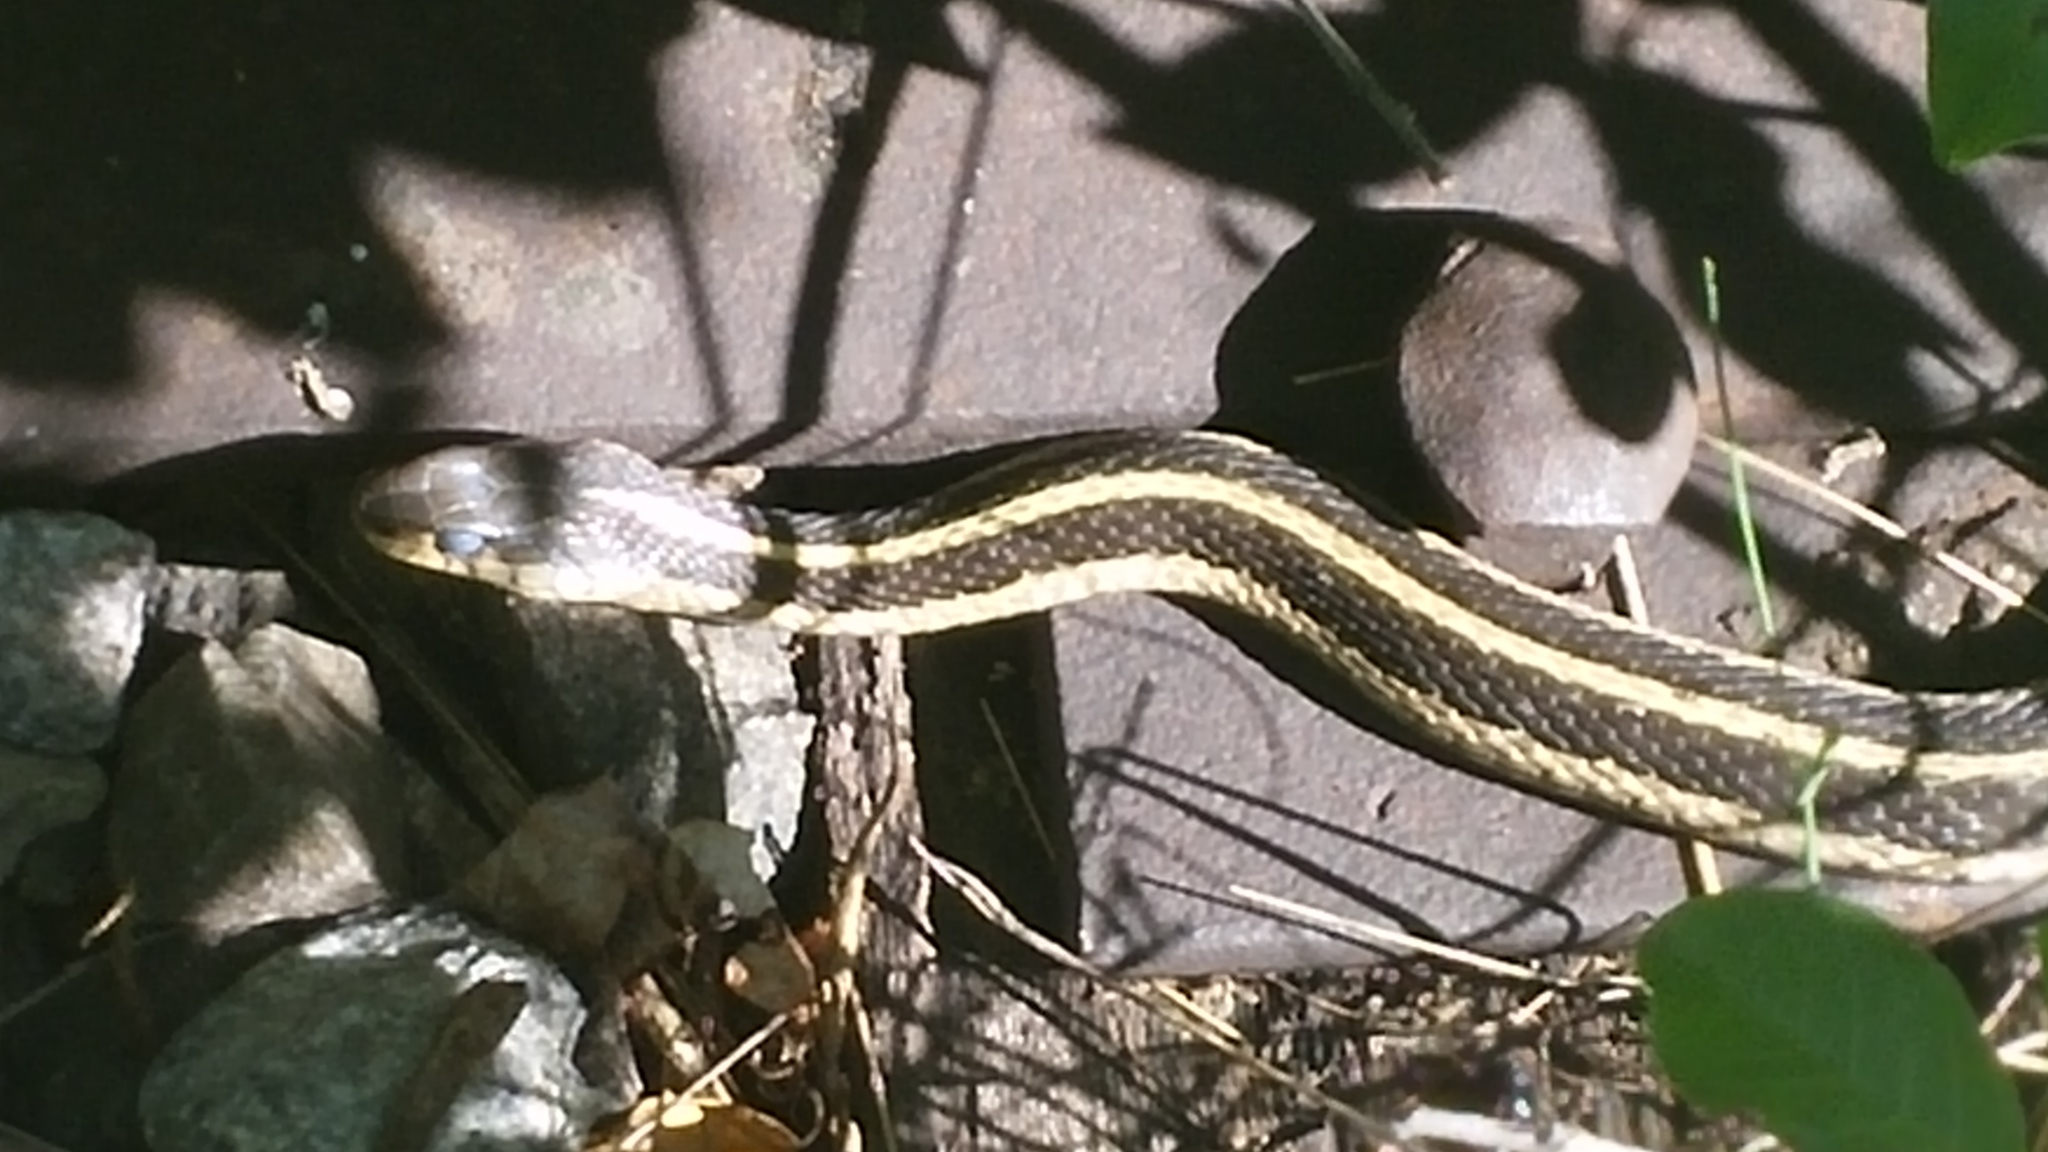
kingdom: Animalia
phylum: Chordata
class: Squamata
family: Colubridae
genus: Thamnophis
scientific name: Thamnophis sirtalis
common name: Common garter snake
